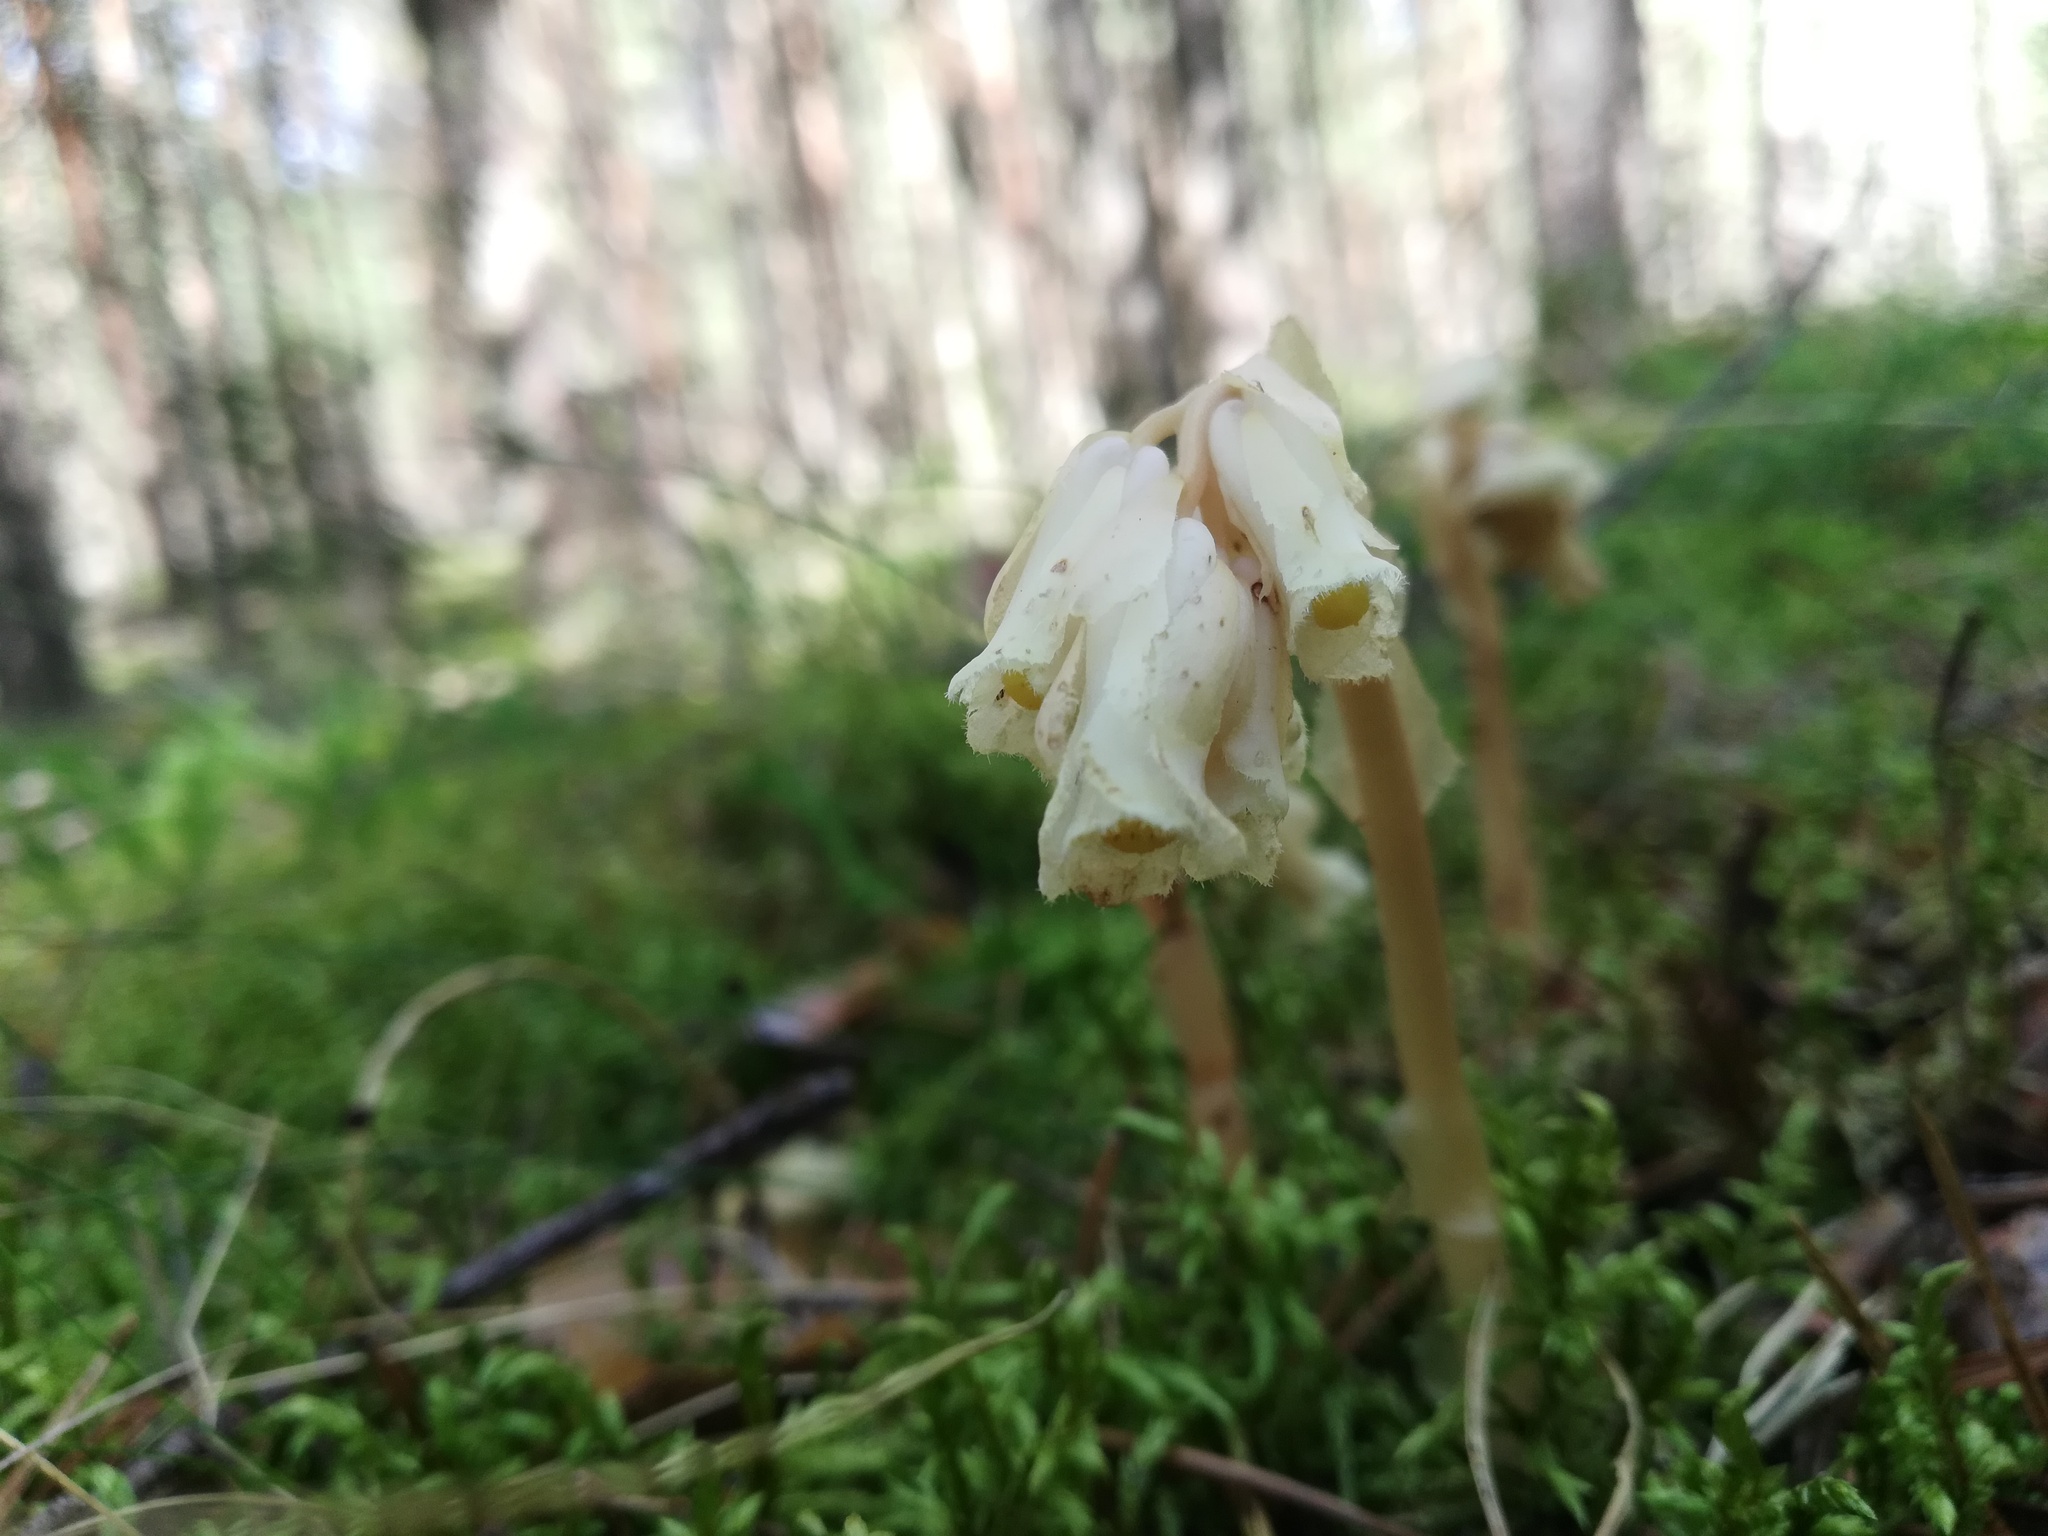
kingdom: Plantae
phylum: Tracheophyta
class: Magnoliopsida
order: Ericales
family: Ericaceae
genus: Hypopitys
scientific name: Hypopitys monotropa
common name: Yellow bird's-nest
